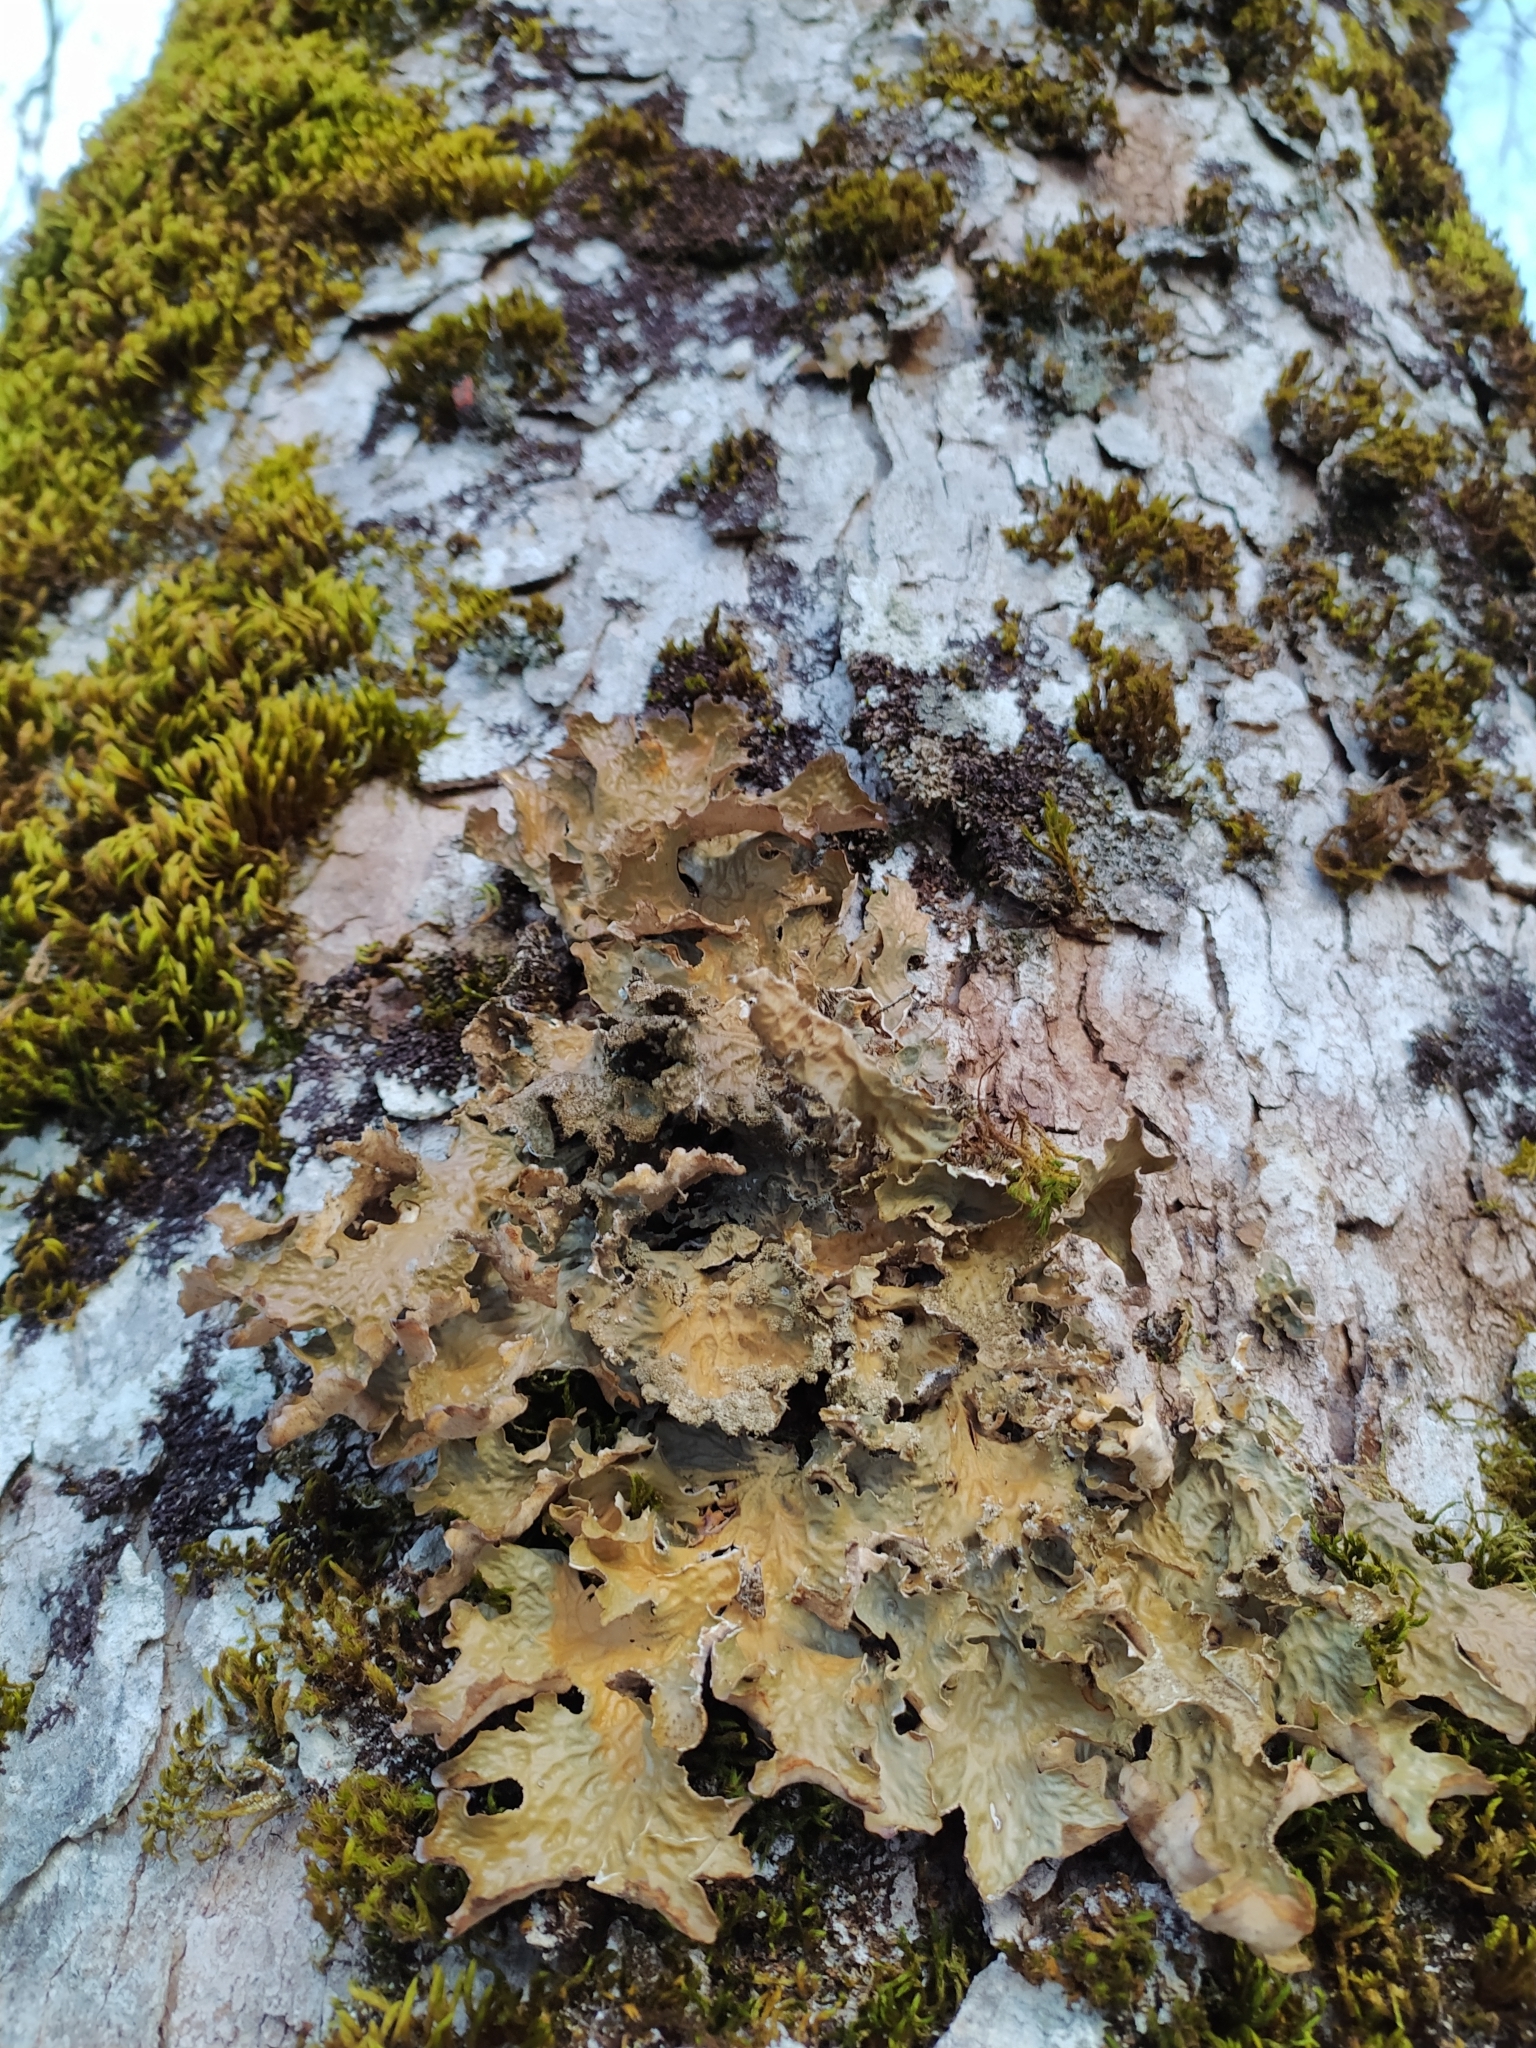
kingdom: Fungi
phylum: Ascomycota
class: Lecanoromycetes
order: Peltigerales
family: Lobariaceae
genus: Lobaria
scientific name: Lobaria pulmonaria
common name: Lungwort
